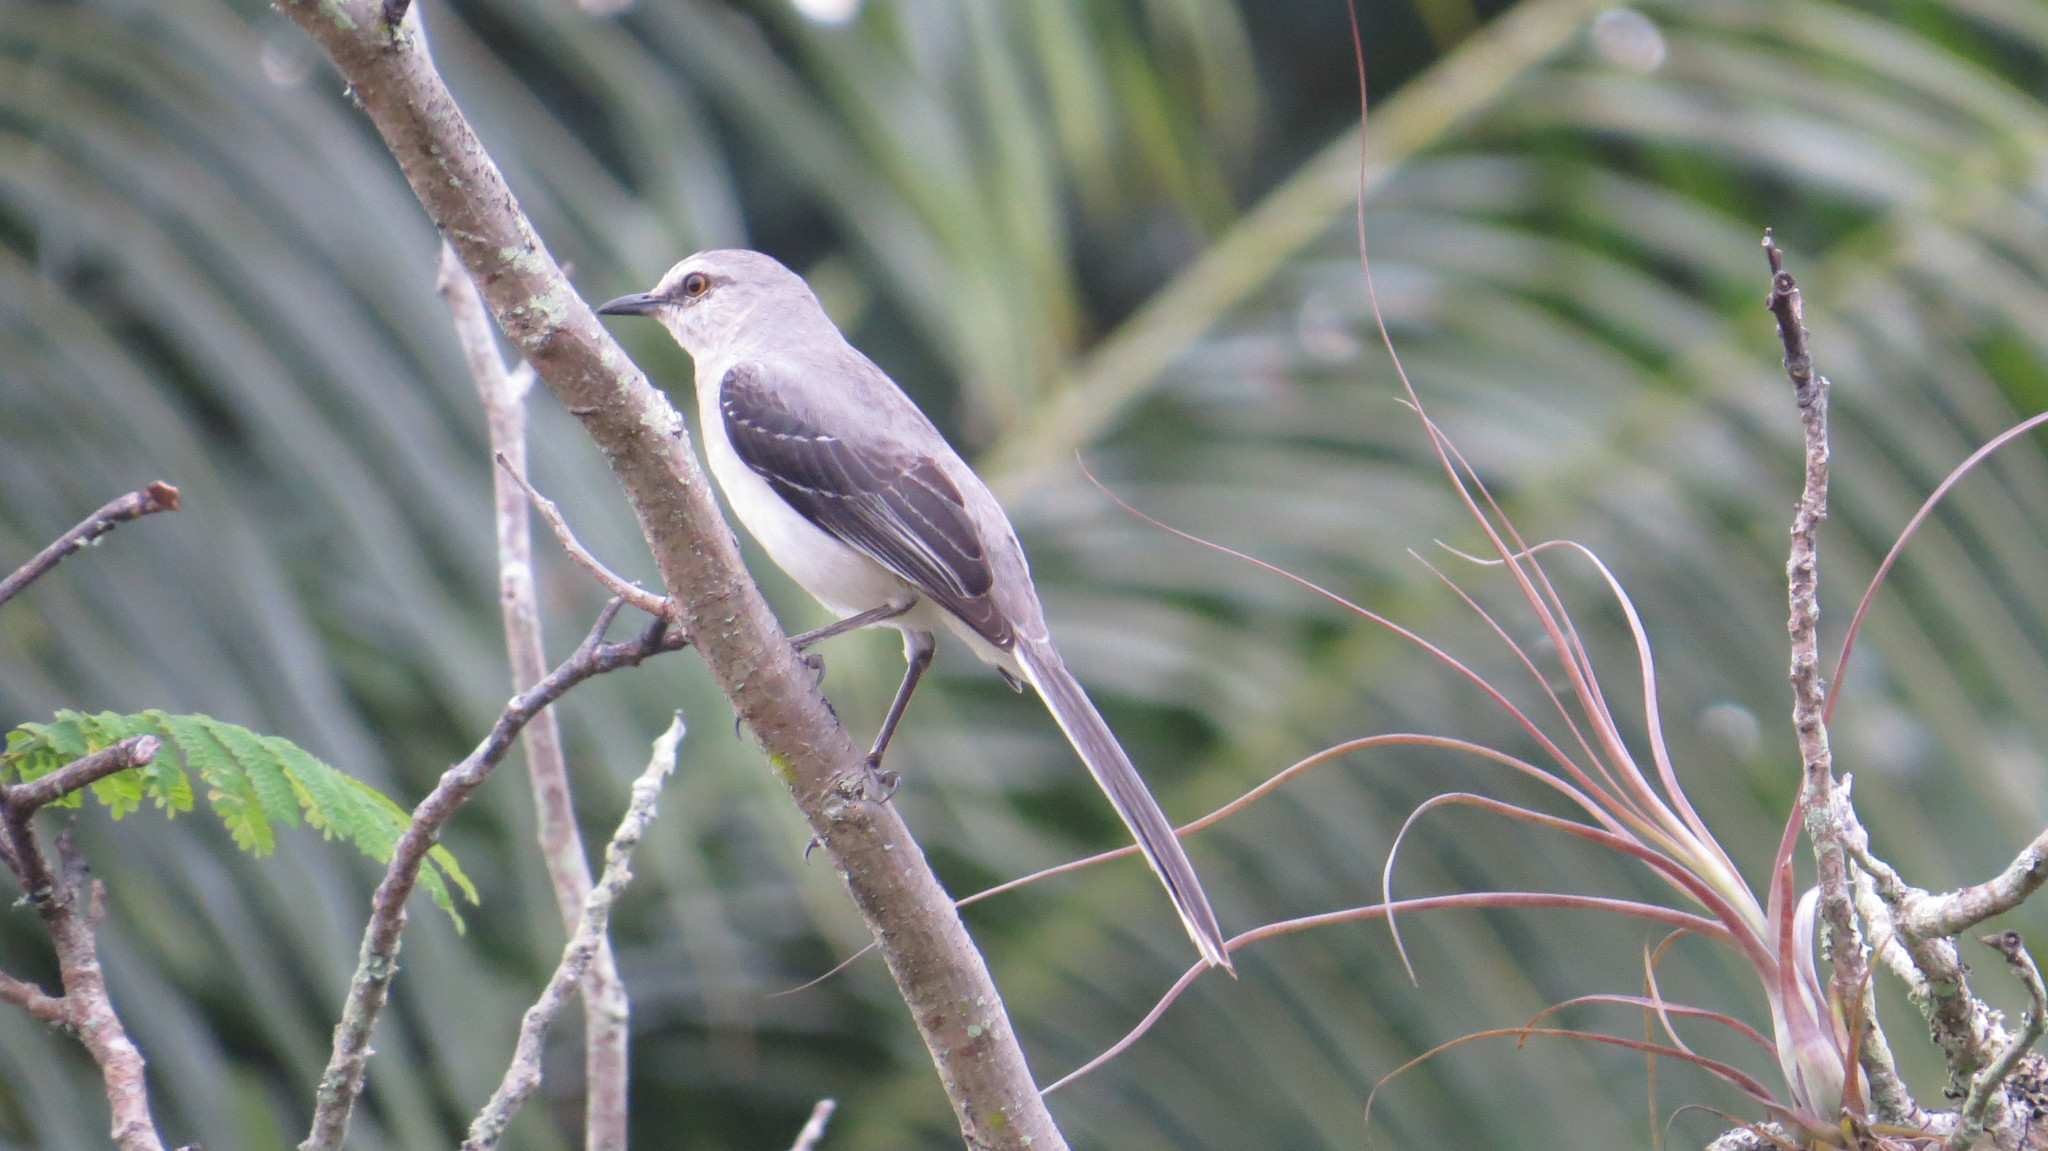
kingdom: Animalia
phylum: Chordata
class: Aves
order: Passeriformes
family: Mimidae
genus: Mimus
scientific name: Mimus gilvus
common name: Tropical mockingbird
